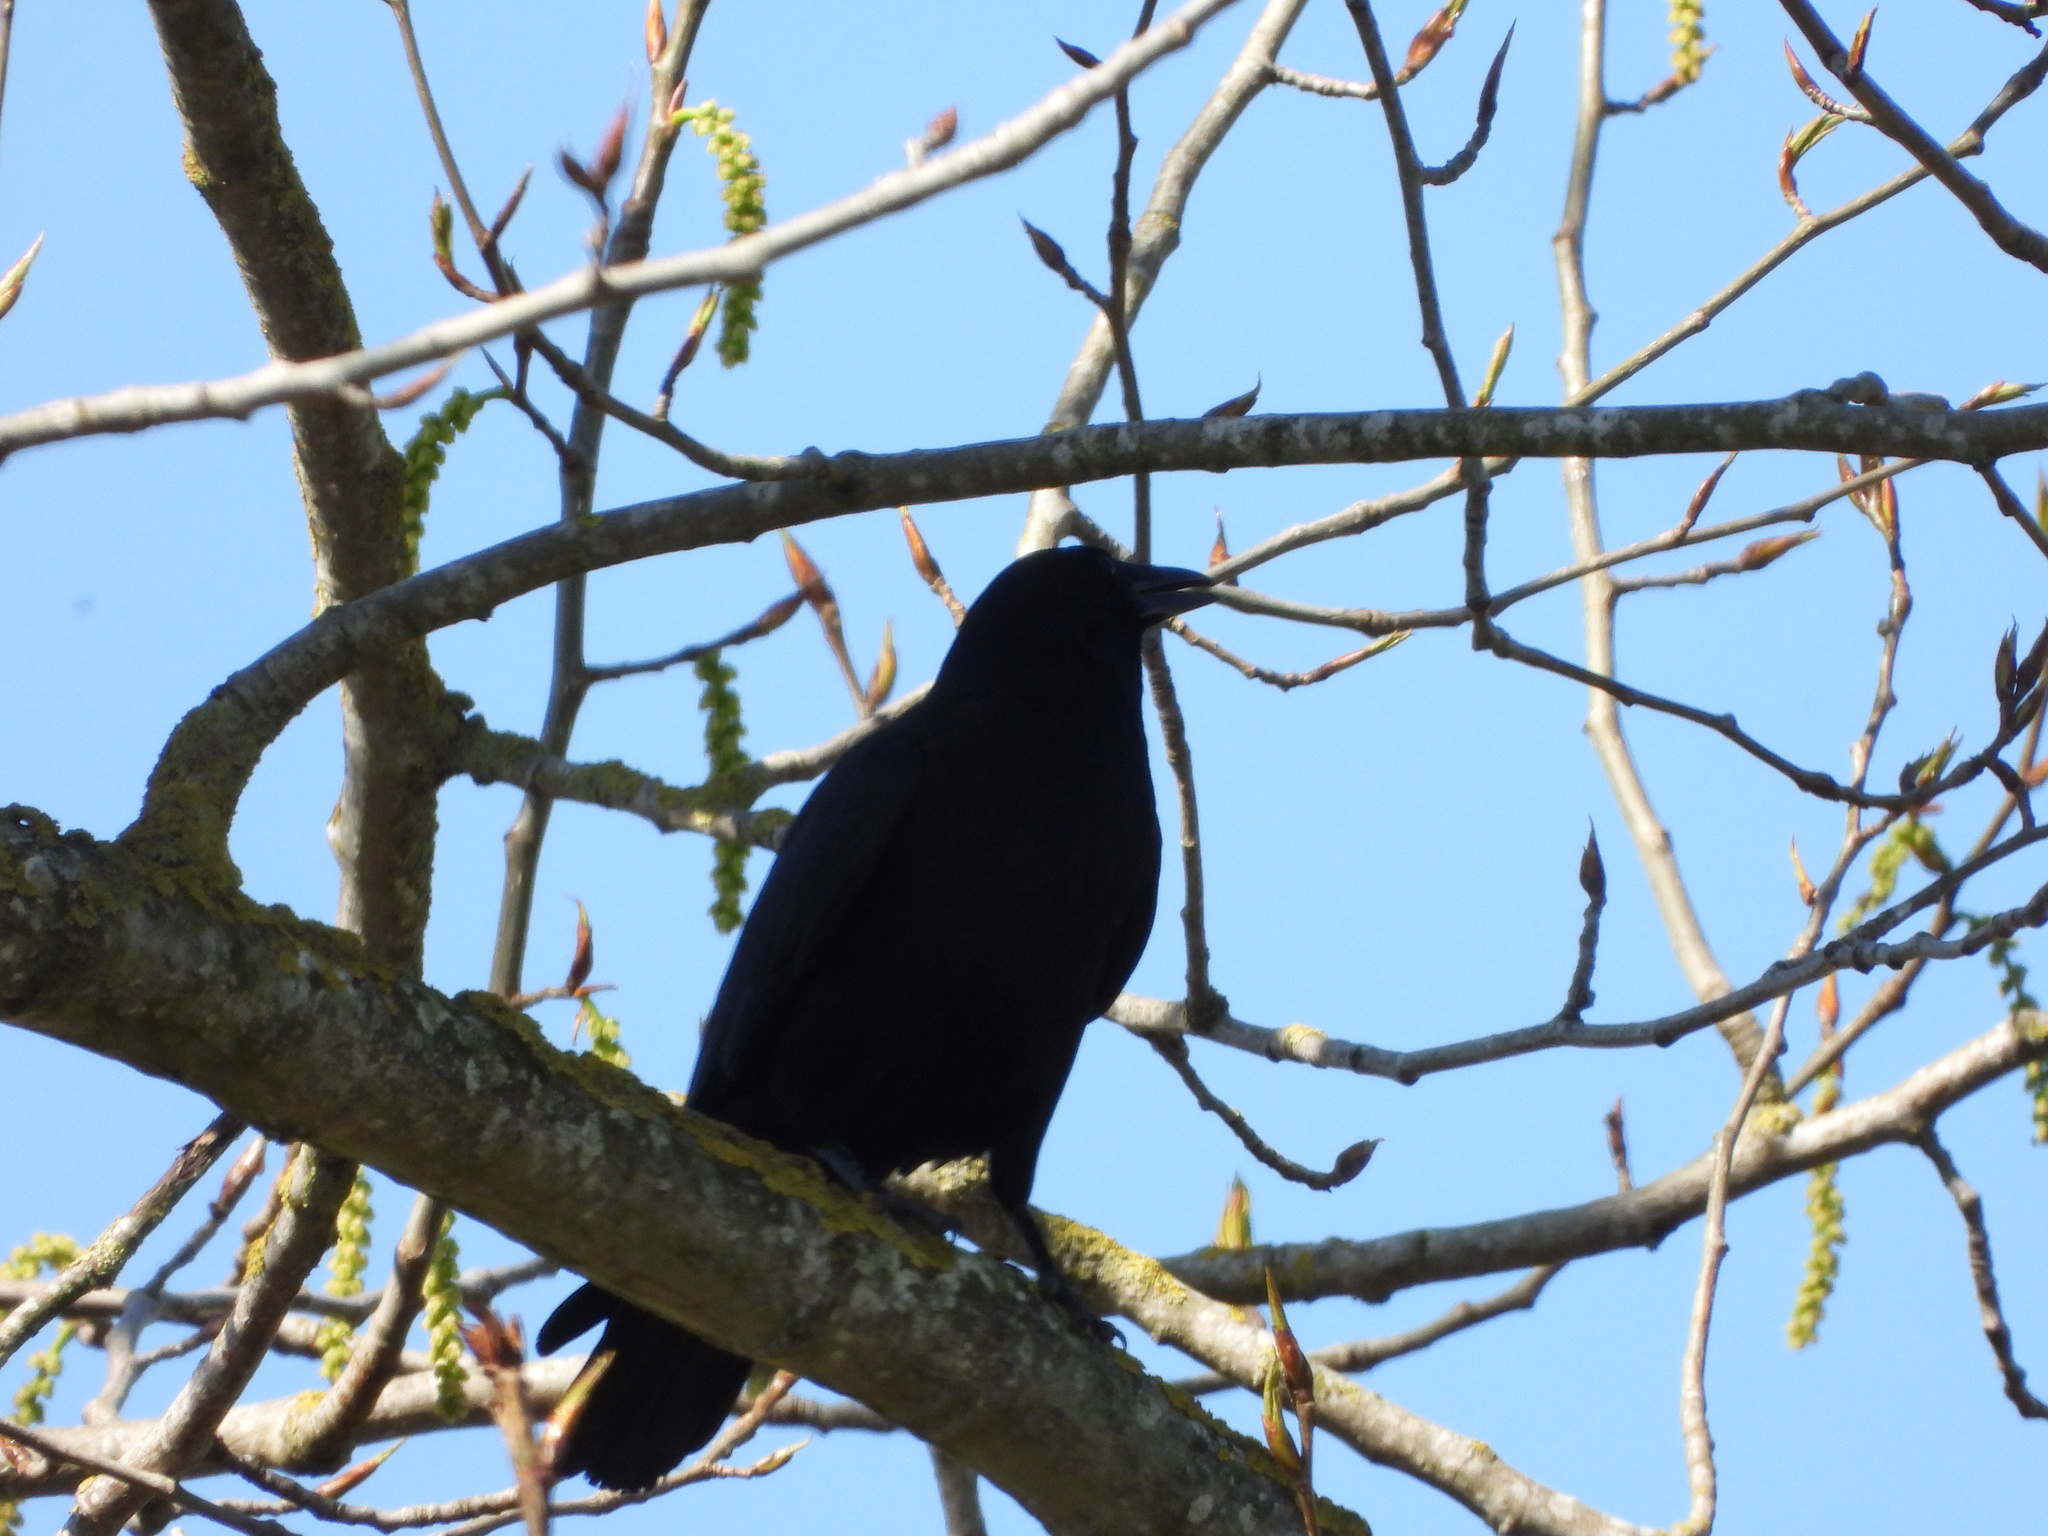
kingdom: Animalia
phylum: Chordata
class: Aves
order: Passeriformes
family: Corvidae
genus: Corvus
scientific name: Corvus brachyrhynchos
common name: American crow
